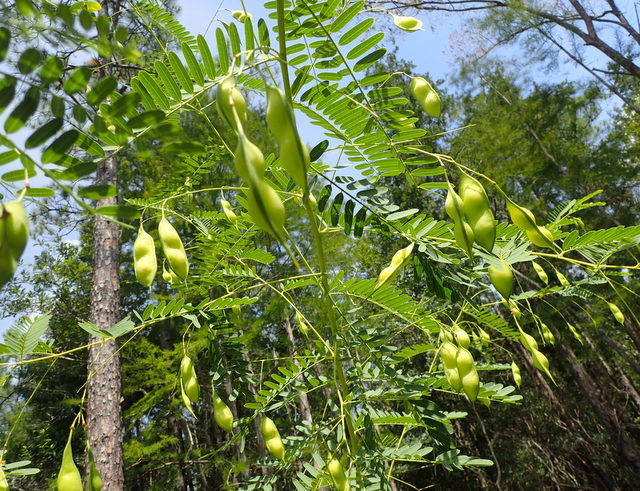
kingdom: Plantae
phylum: Tracheophyta
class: Magnoliopsida
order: Fabales
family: Fabaceae
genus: Sesbania
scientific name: Sesbania vesicaria
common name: Bagpod
